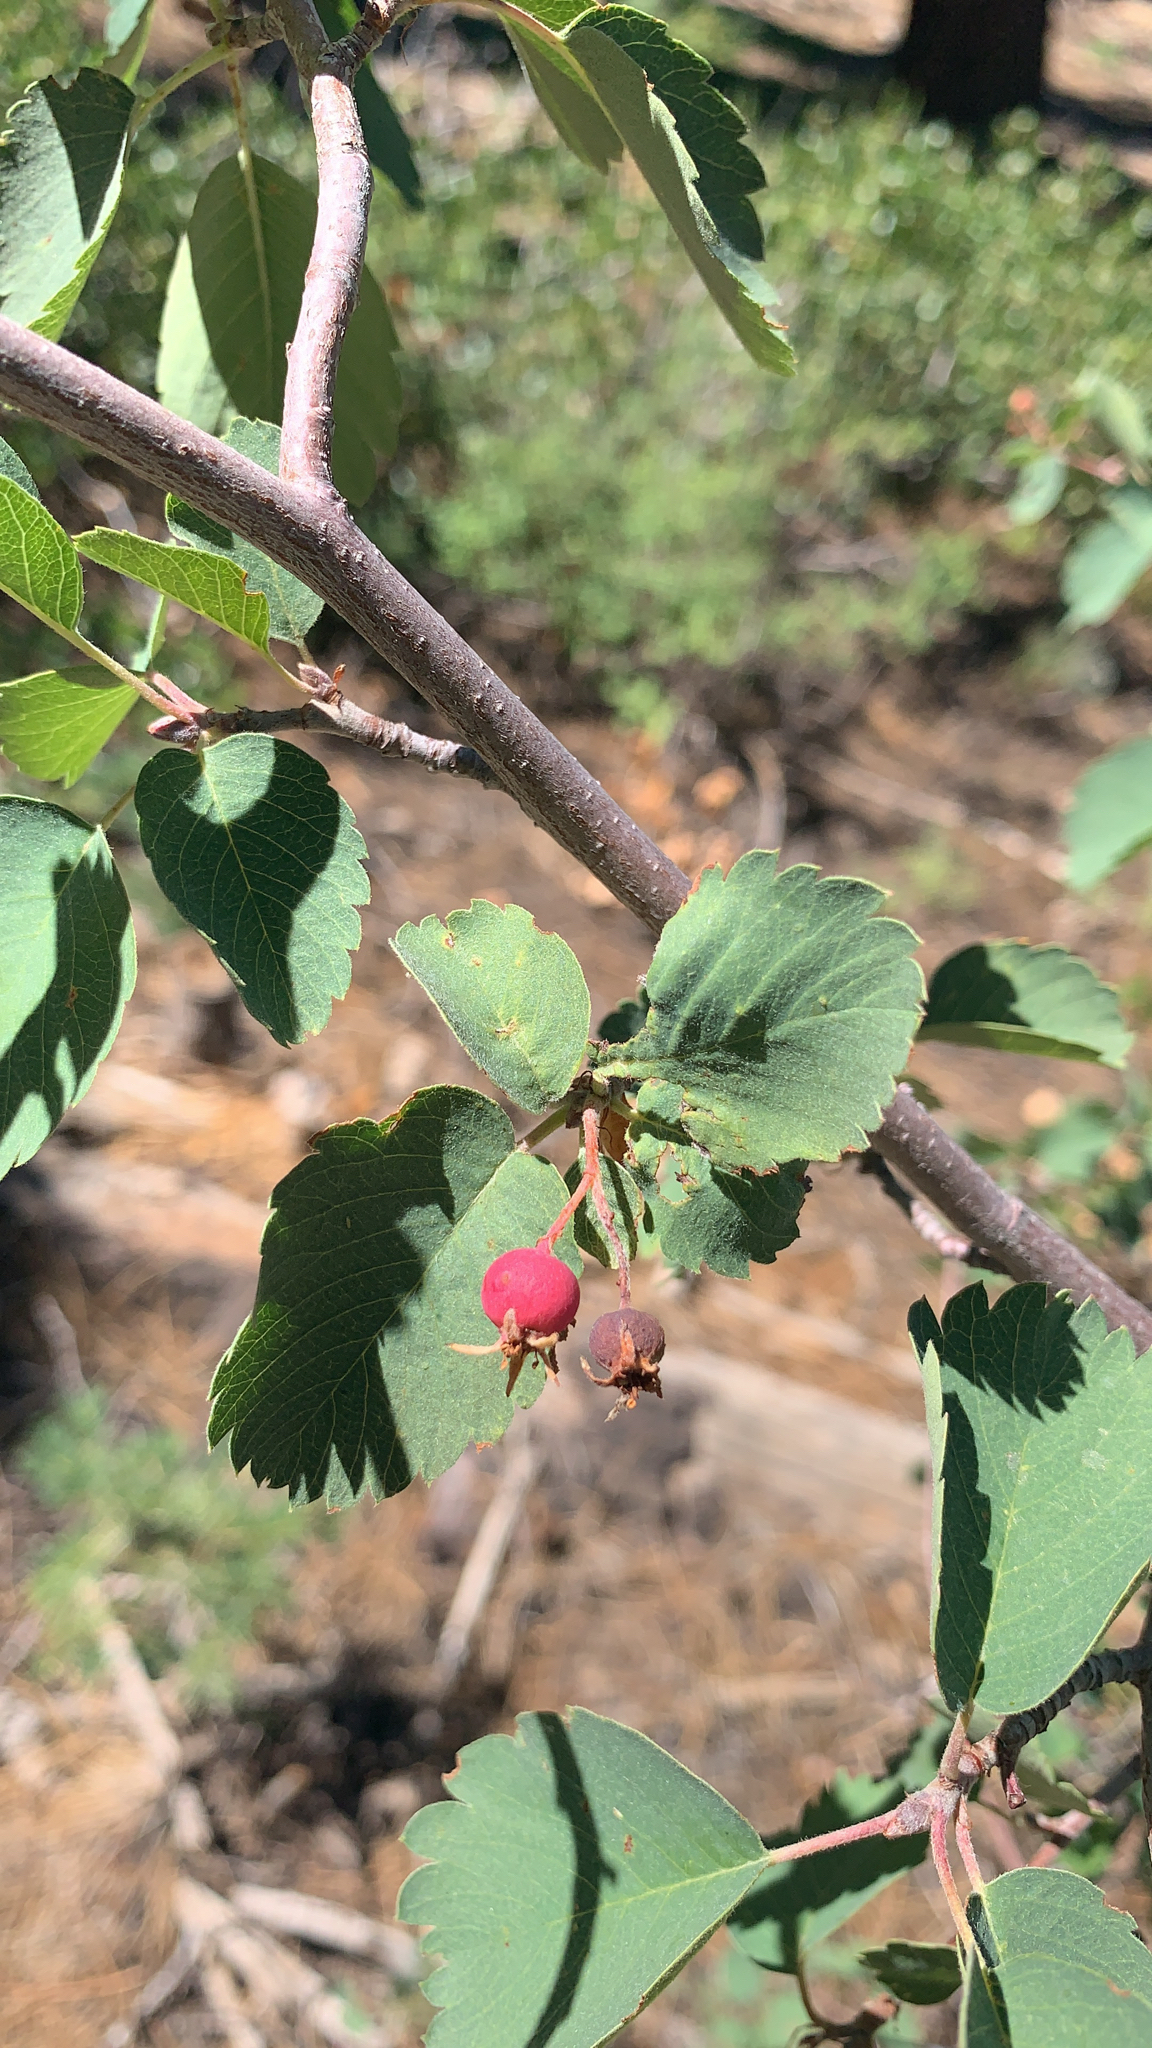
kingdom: Plantae
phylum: Tracheophyta
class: Magnoliopsida
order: Rosales
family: Rosaceae
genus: Amelanchier
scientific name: Amelanchier utahensis
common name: Utah serviceberry
